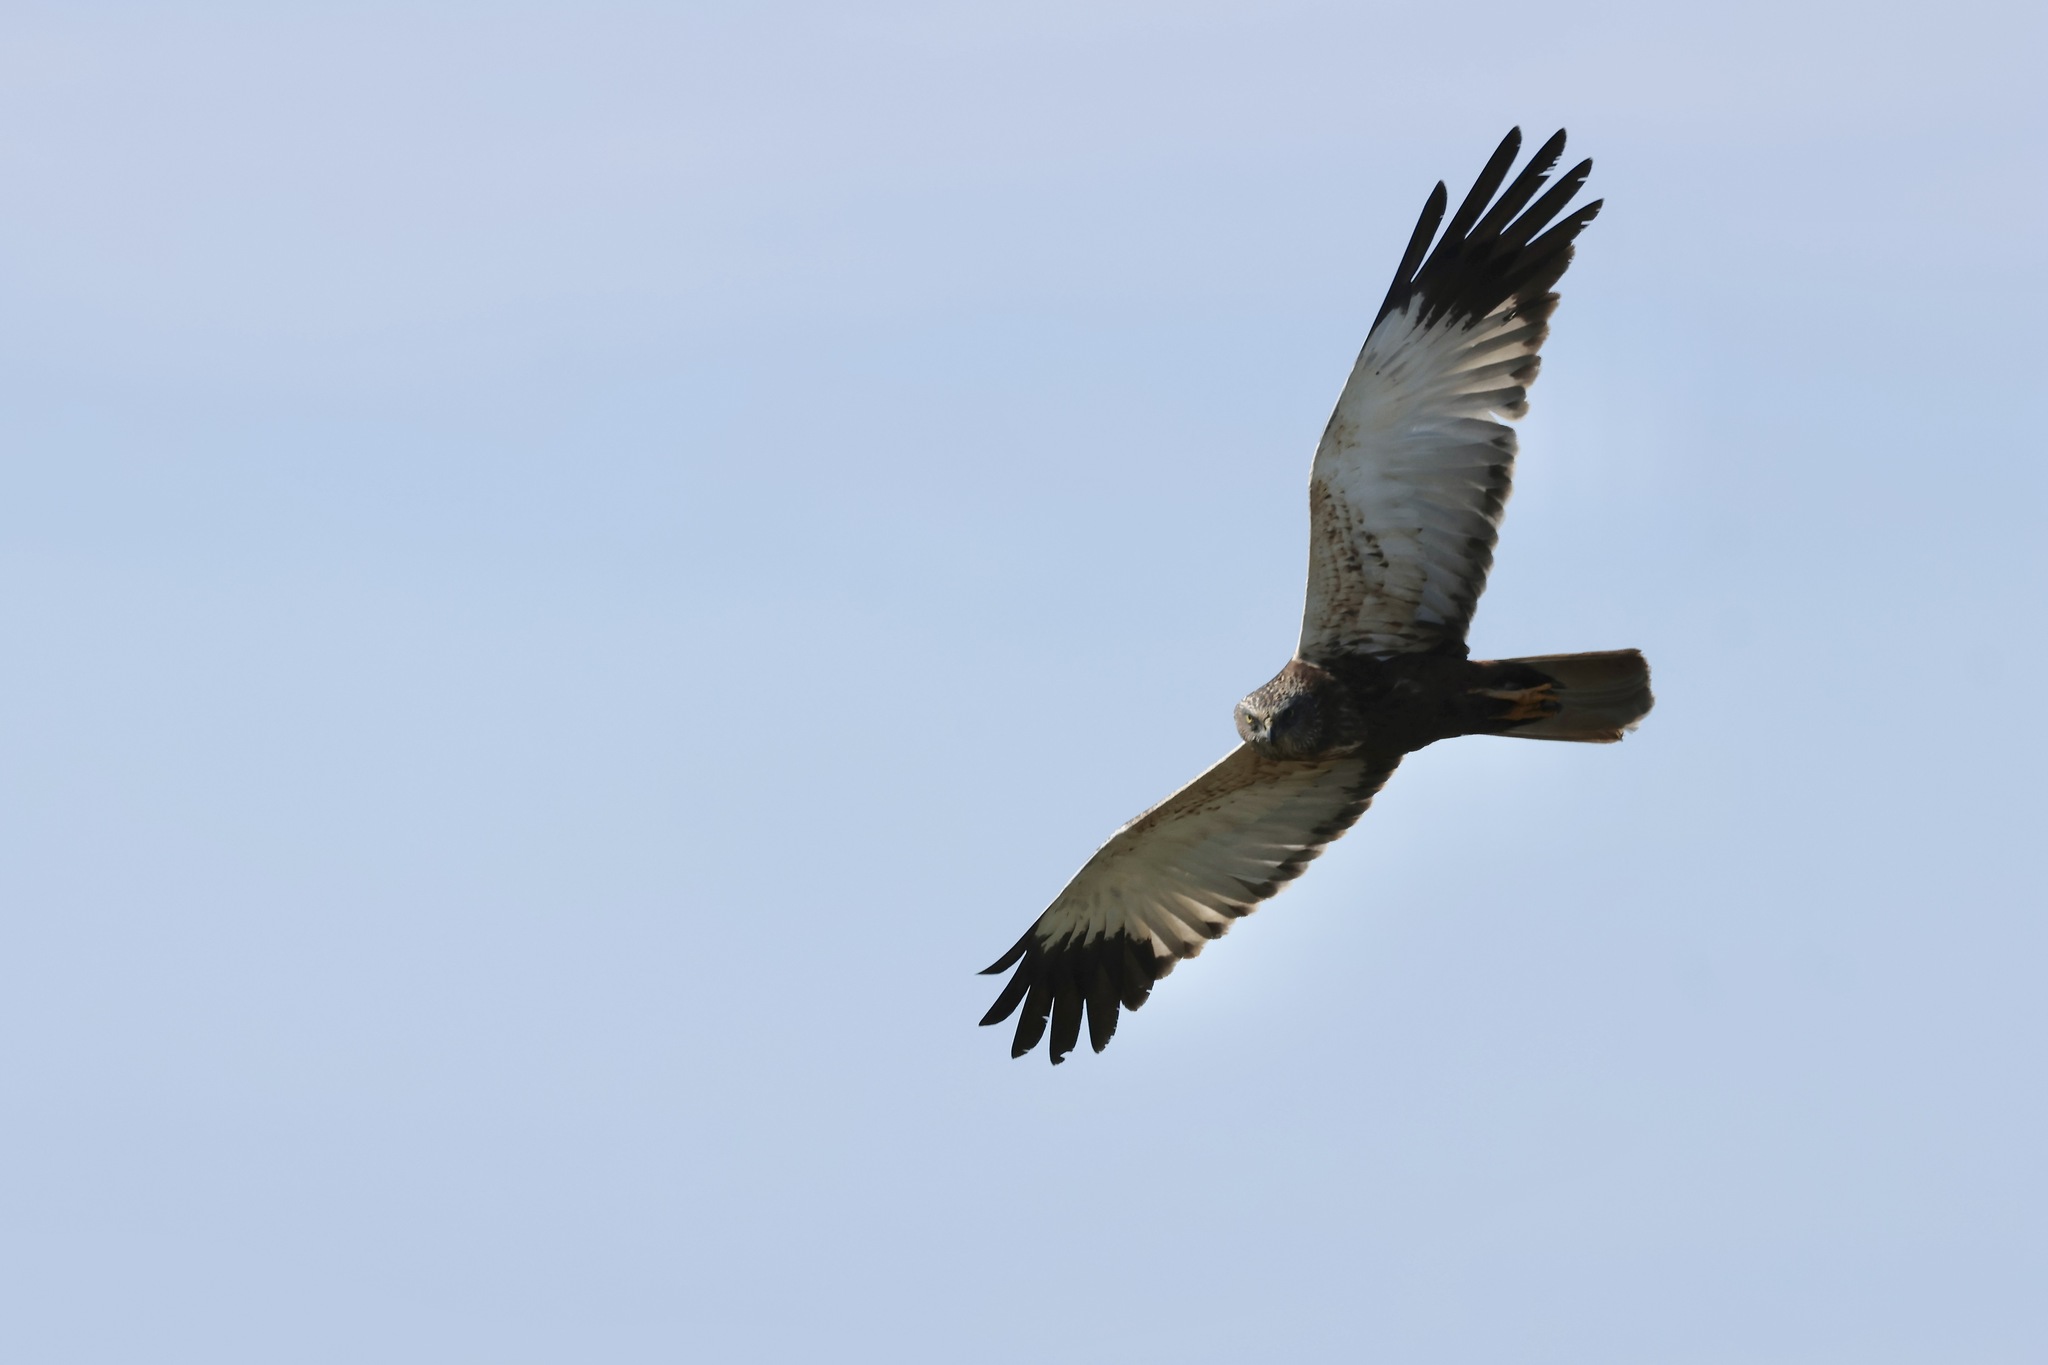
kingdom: Animalia
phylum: Chordata
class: Aves
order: Accipitriformes
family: Accipitridae
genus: Circus
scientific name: Circus aeruginosus
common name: Western marsh harrier
